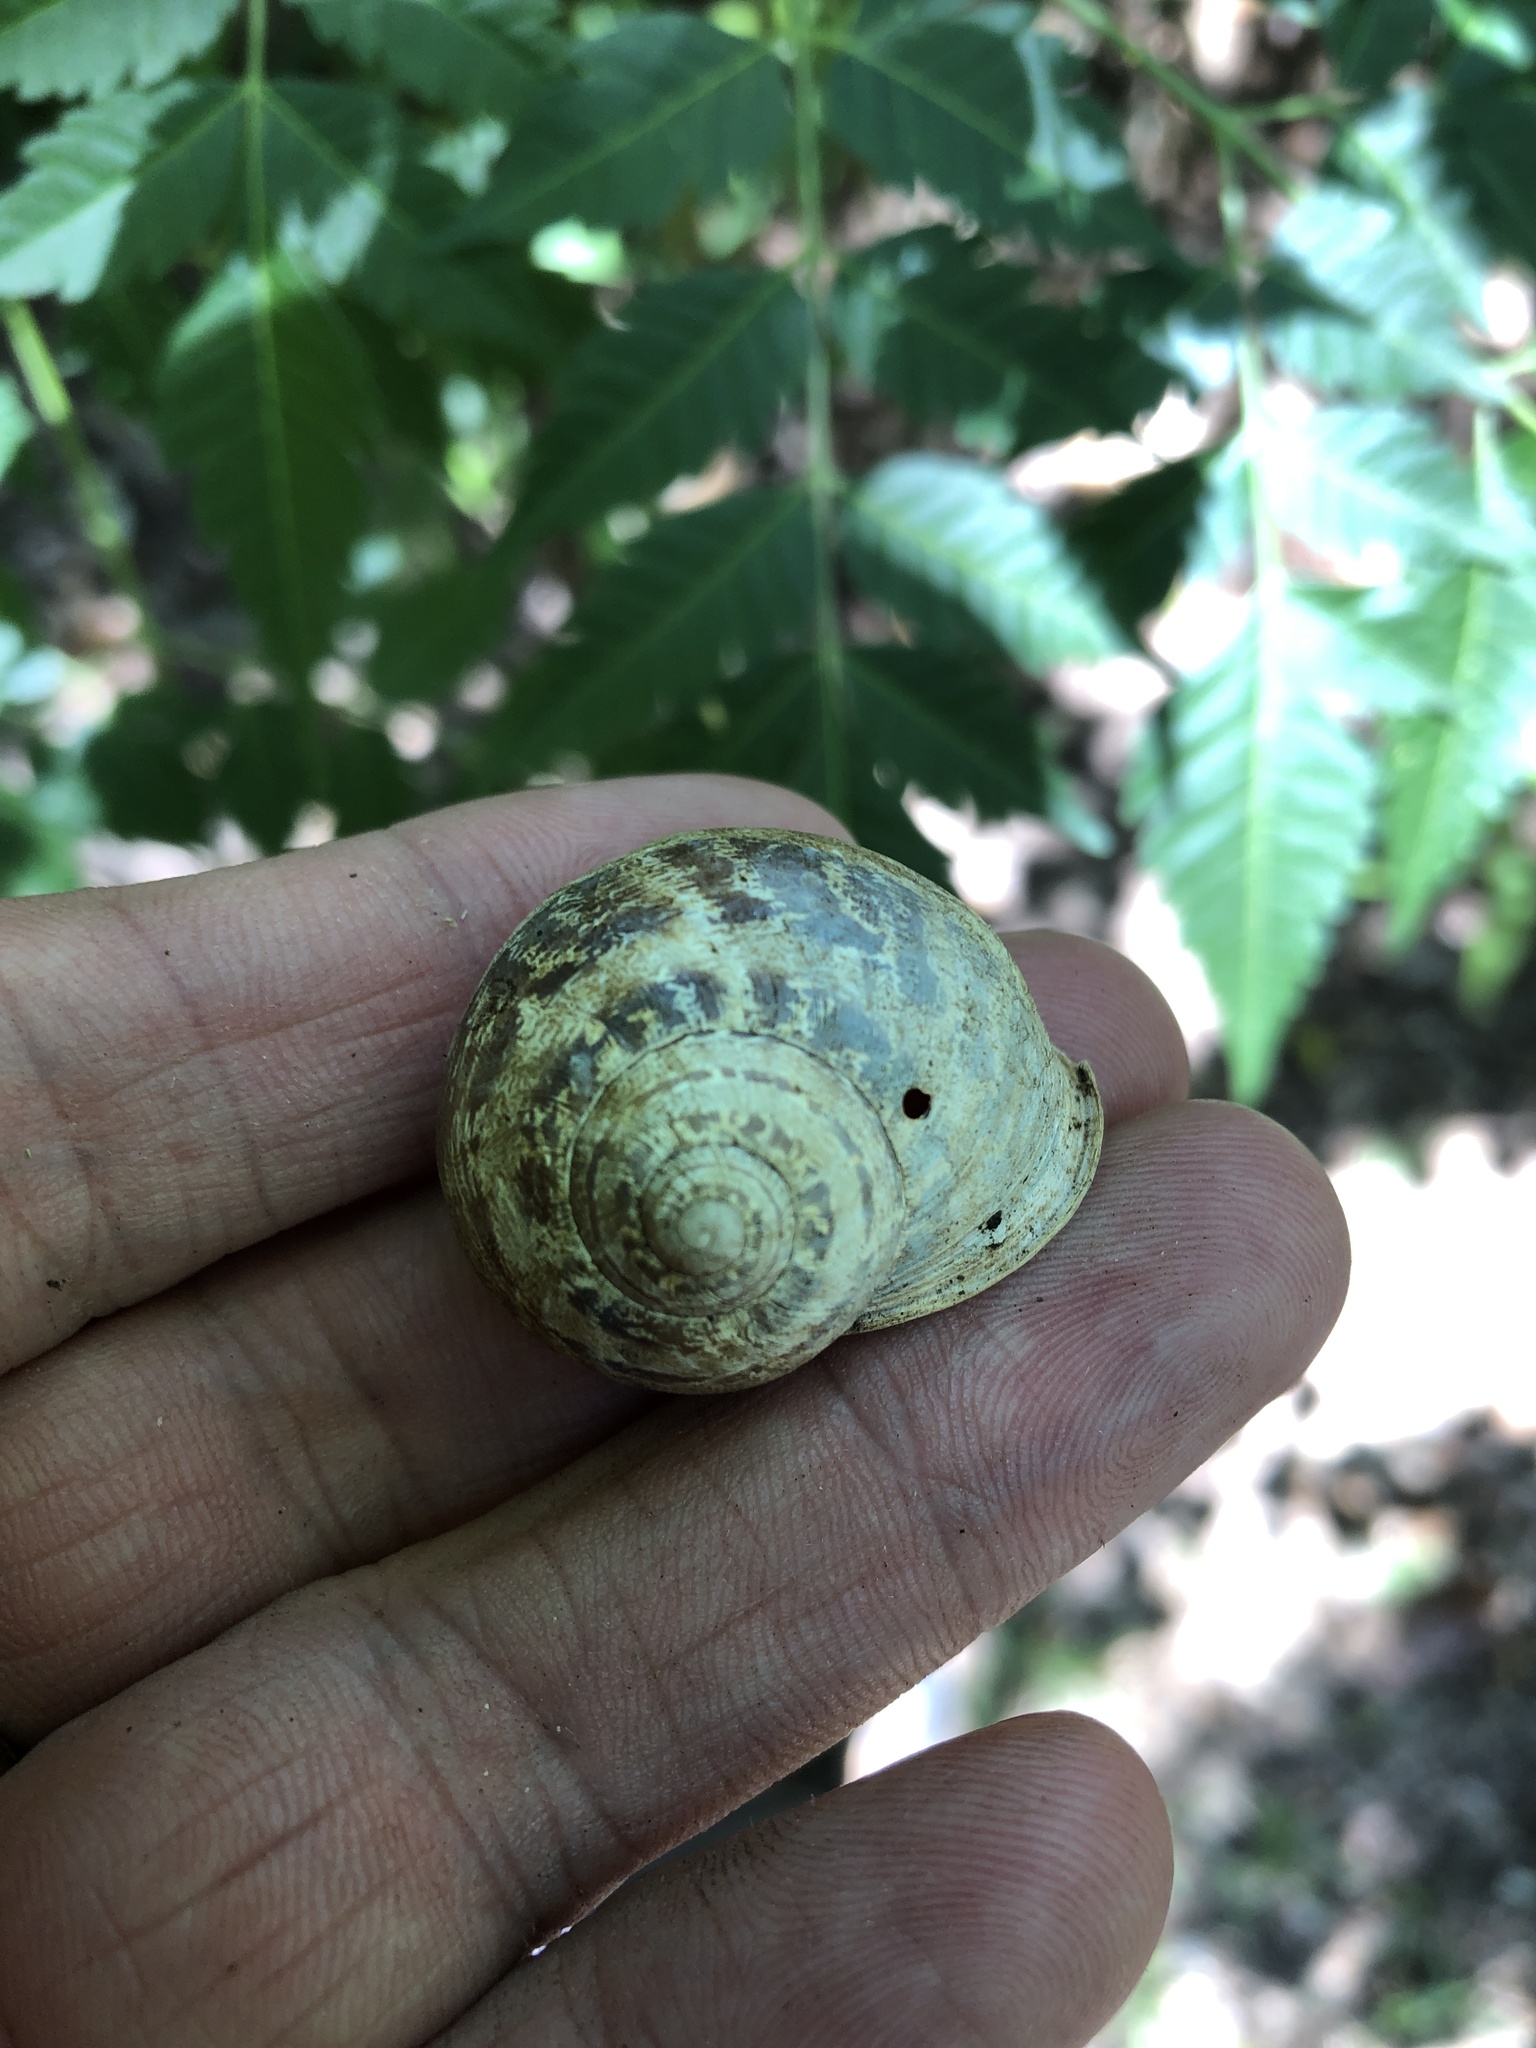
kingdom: Animalia
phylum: Mollusca
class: Gastropoda
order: Stylommatophora
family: Helicidae
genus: Cornu
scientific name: Cornu aspersum
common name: Brown garden snail
